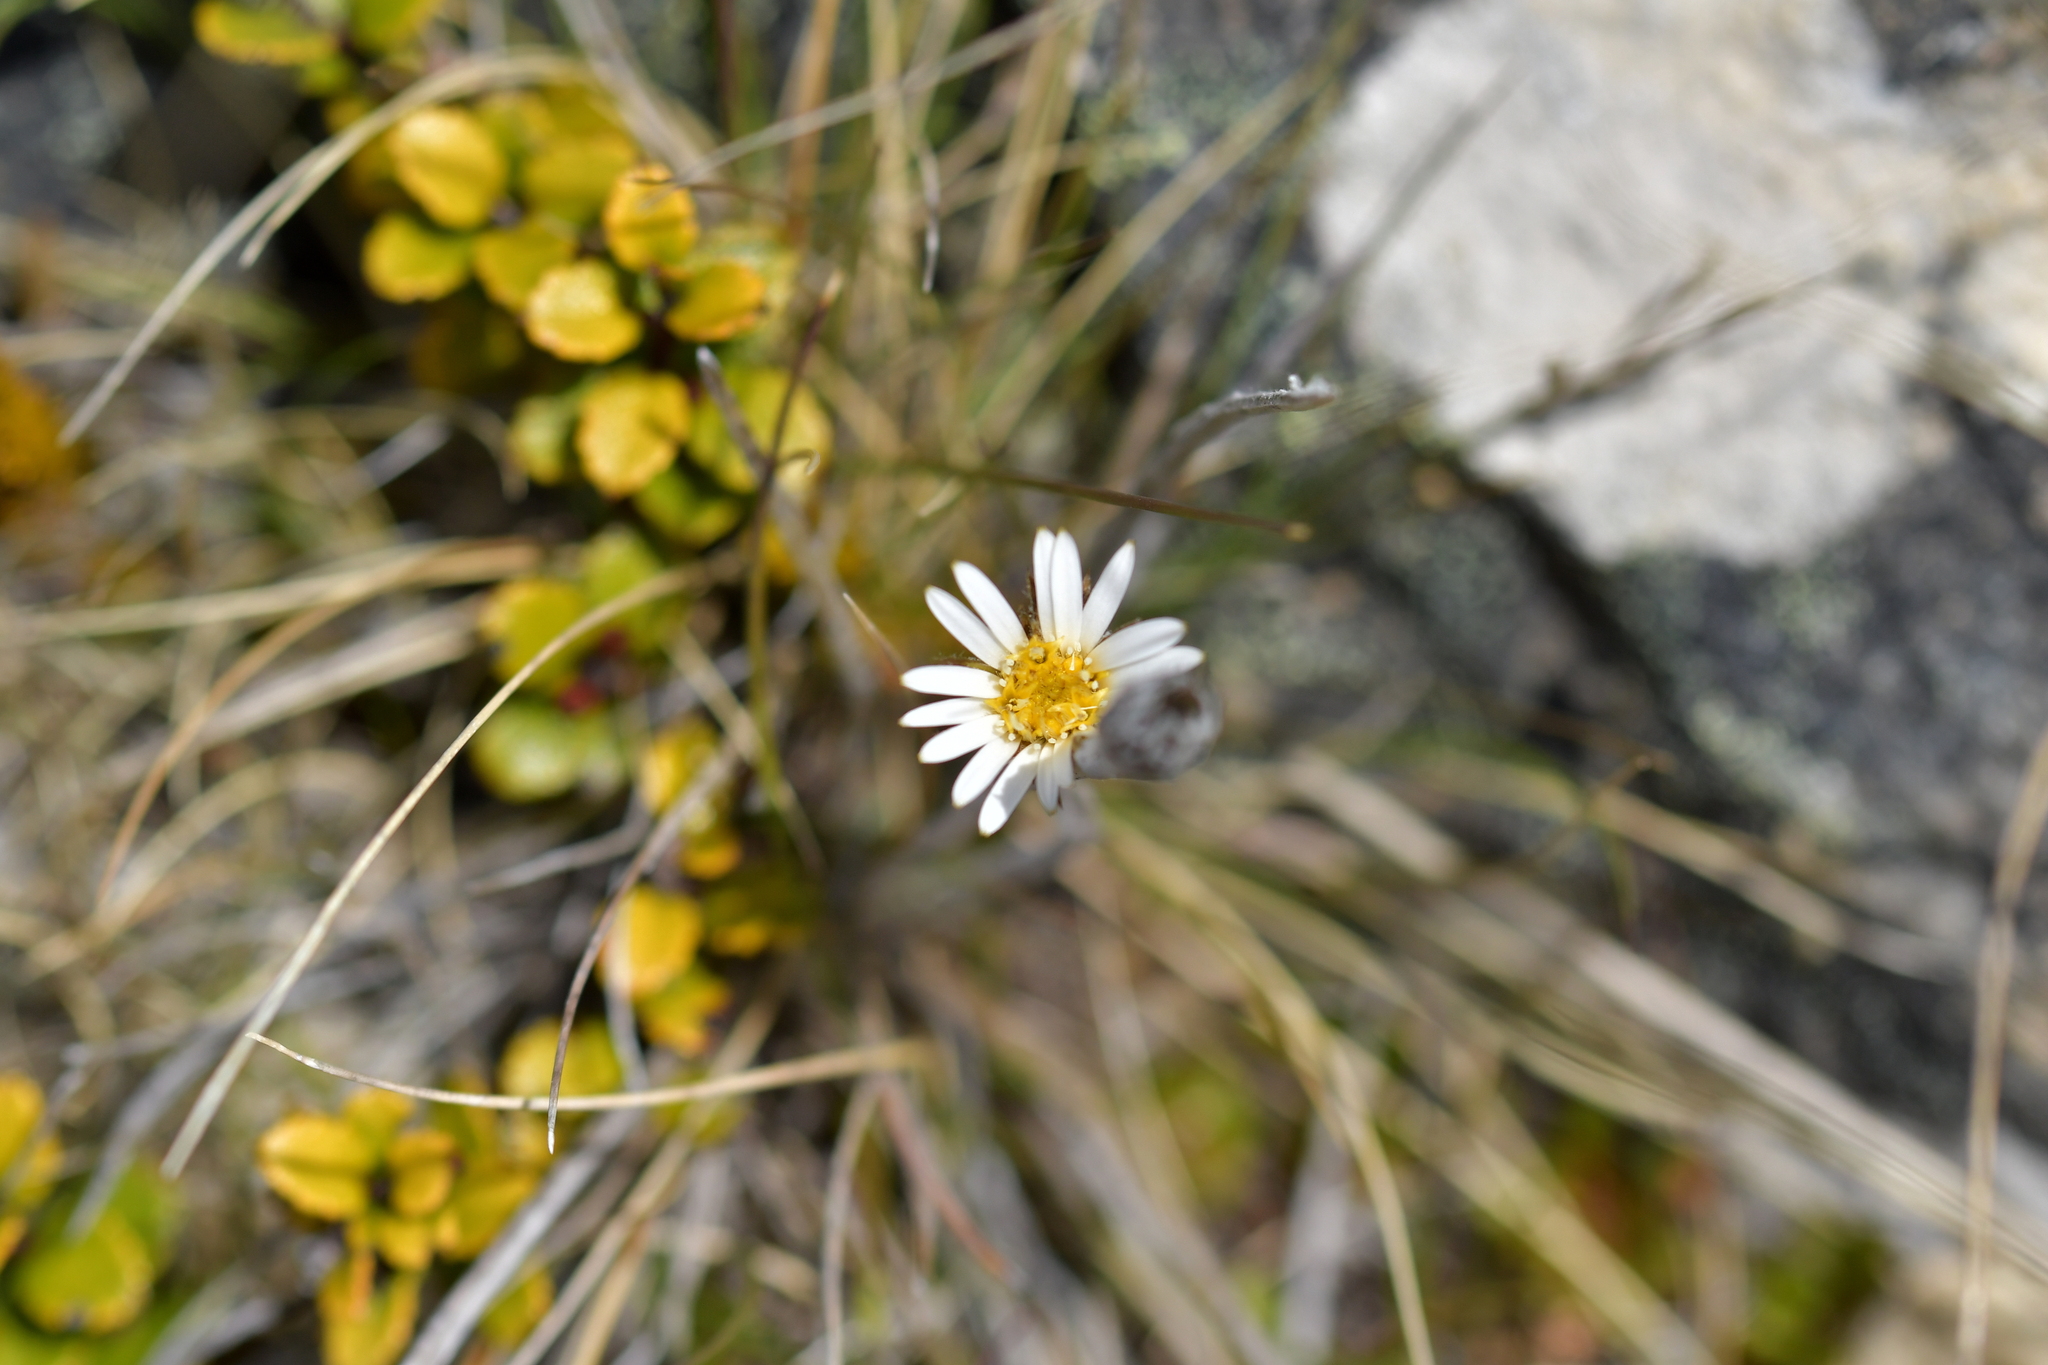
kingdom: Plantae
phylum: Tracheophyta
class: Magnoliopsida
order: Asterales
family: Asteraceae
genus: Celmisia
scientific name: Celmisia gracilenta
